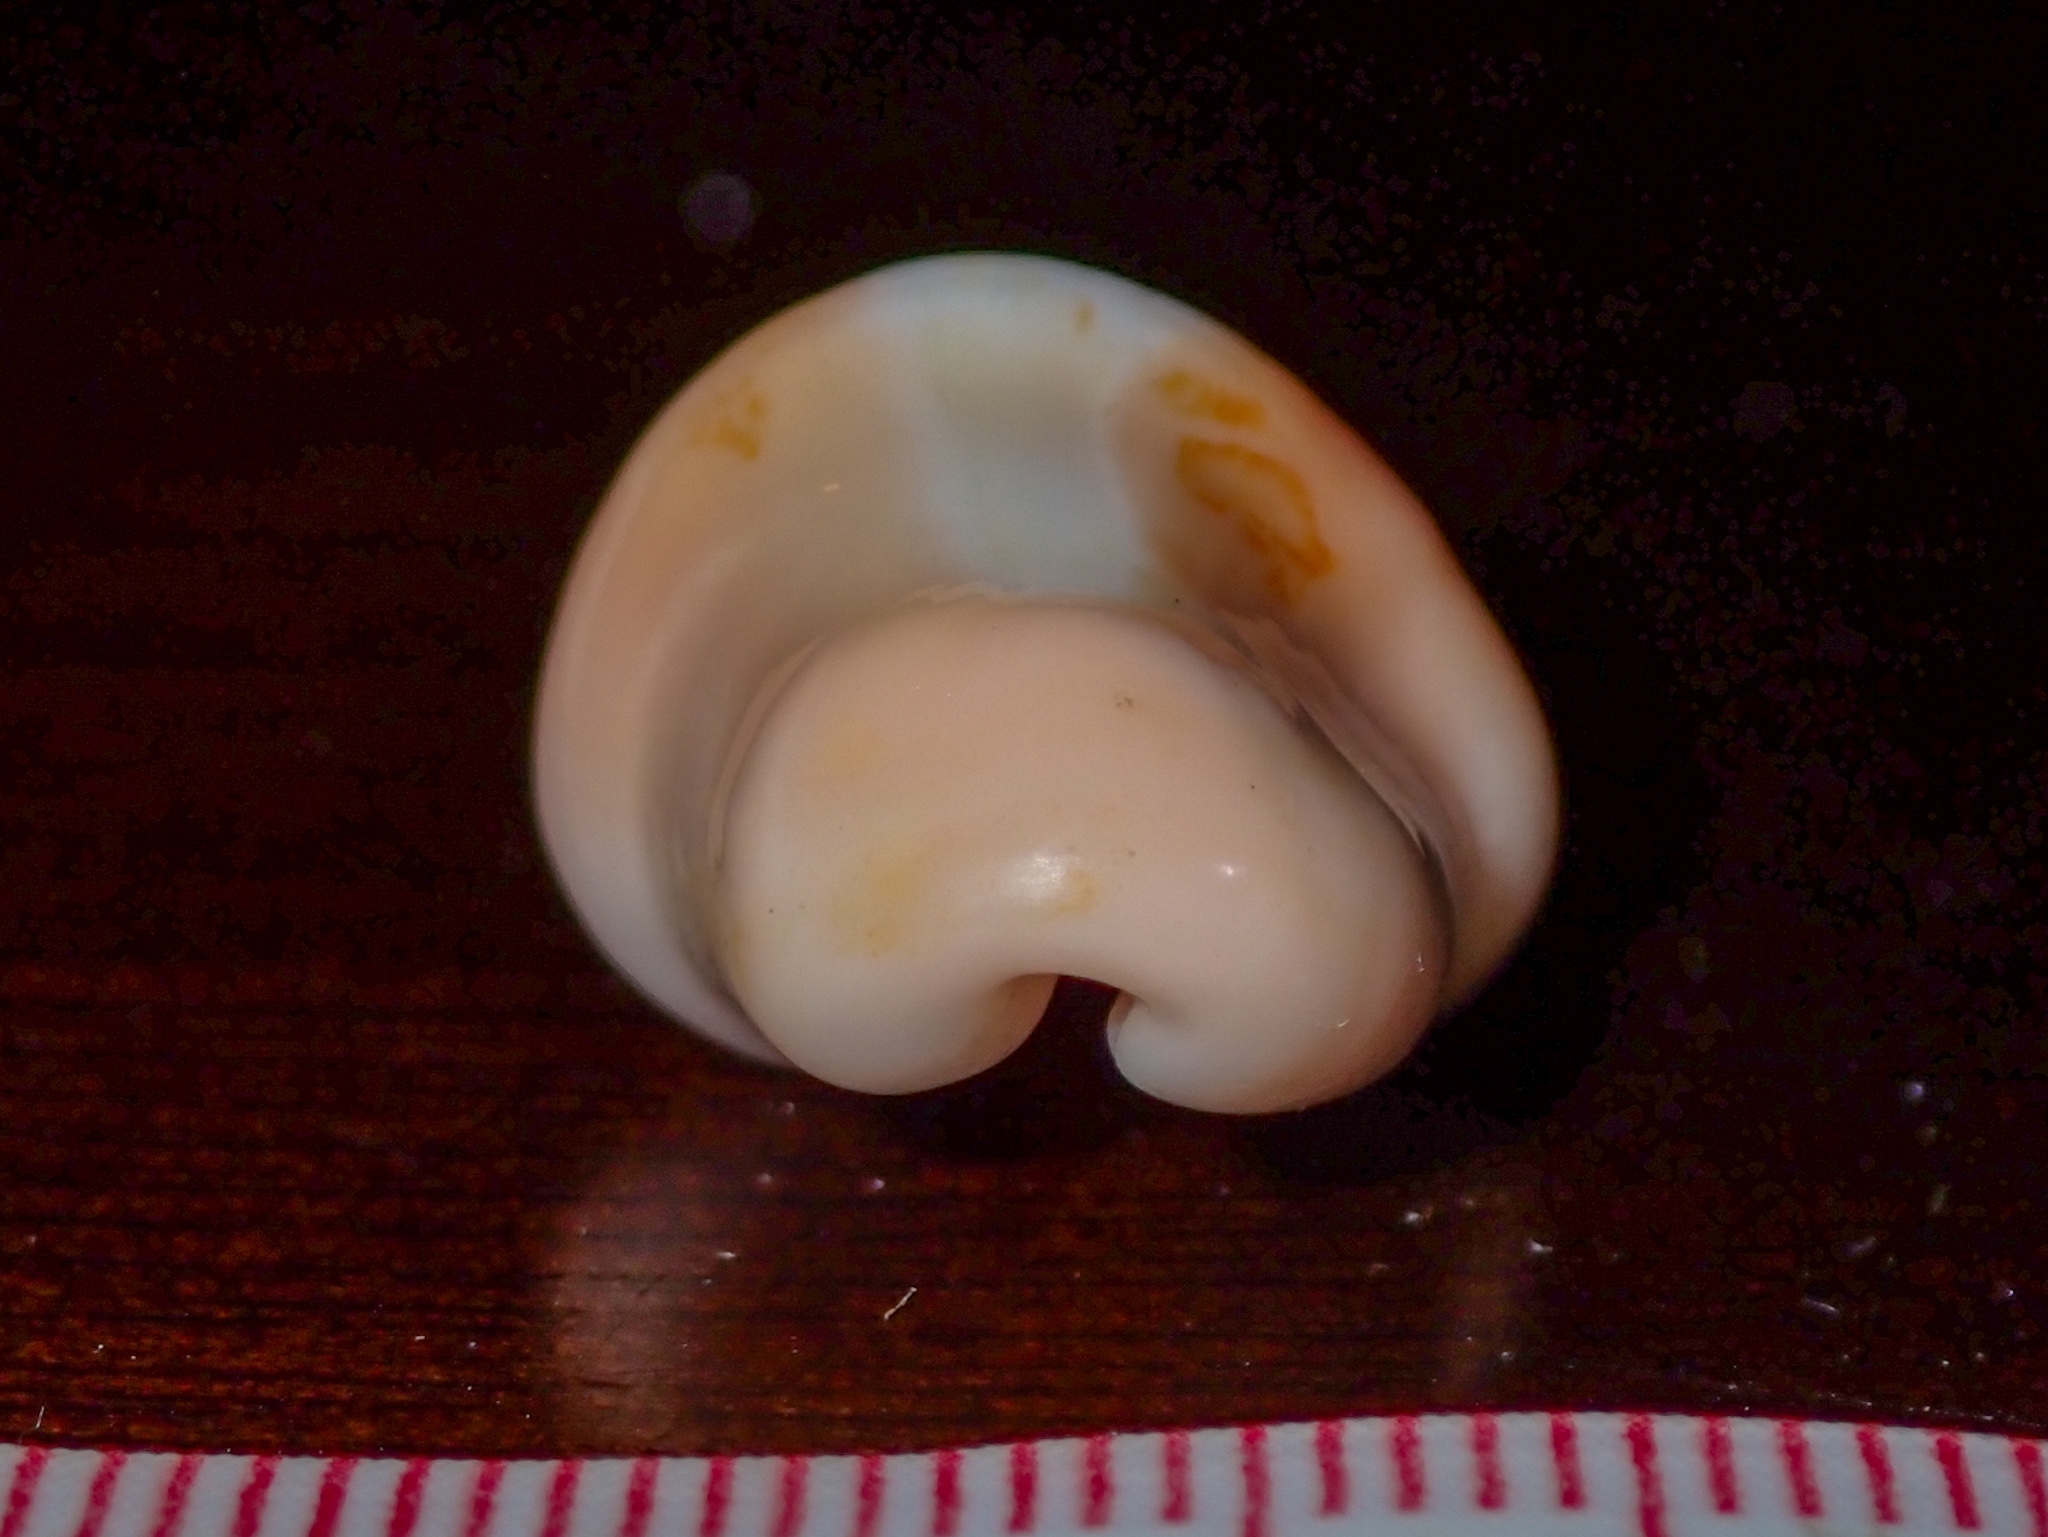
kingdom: Animalia
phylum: Mollusca
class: Gastropoda
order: Littorinimorpha
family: Ovulidae
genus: Cyphoma
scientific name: Cyphoma gibbosum
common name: Flamingo tongue
